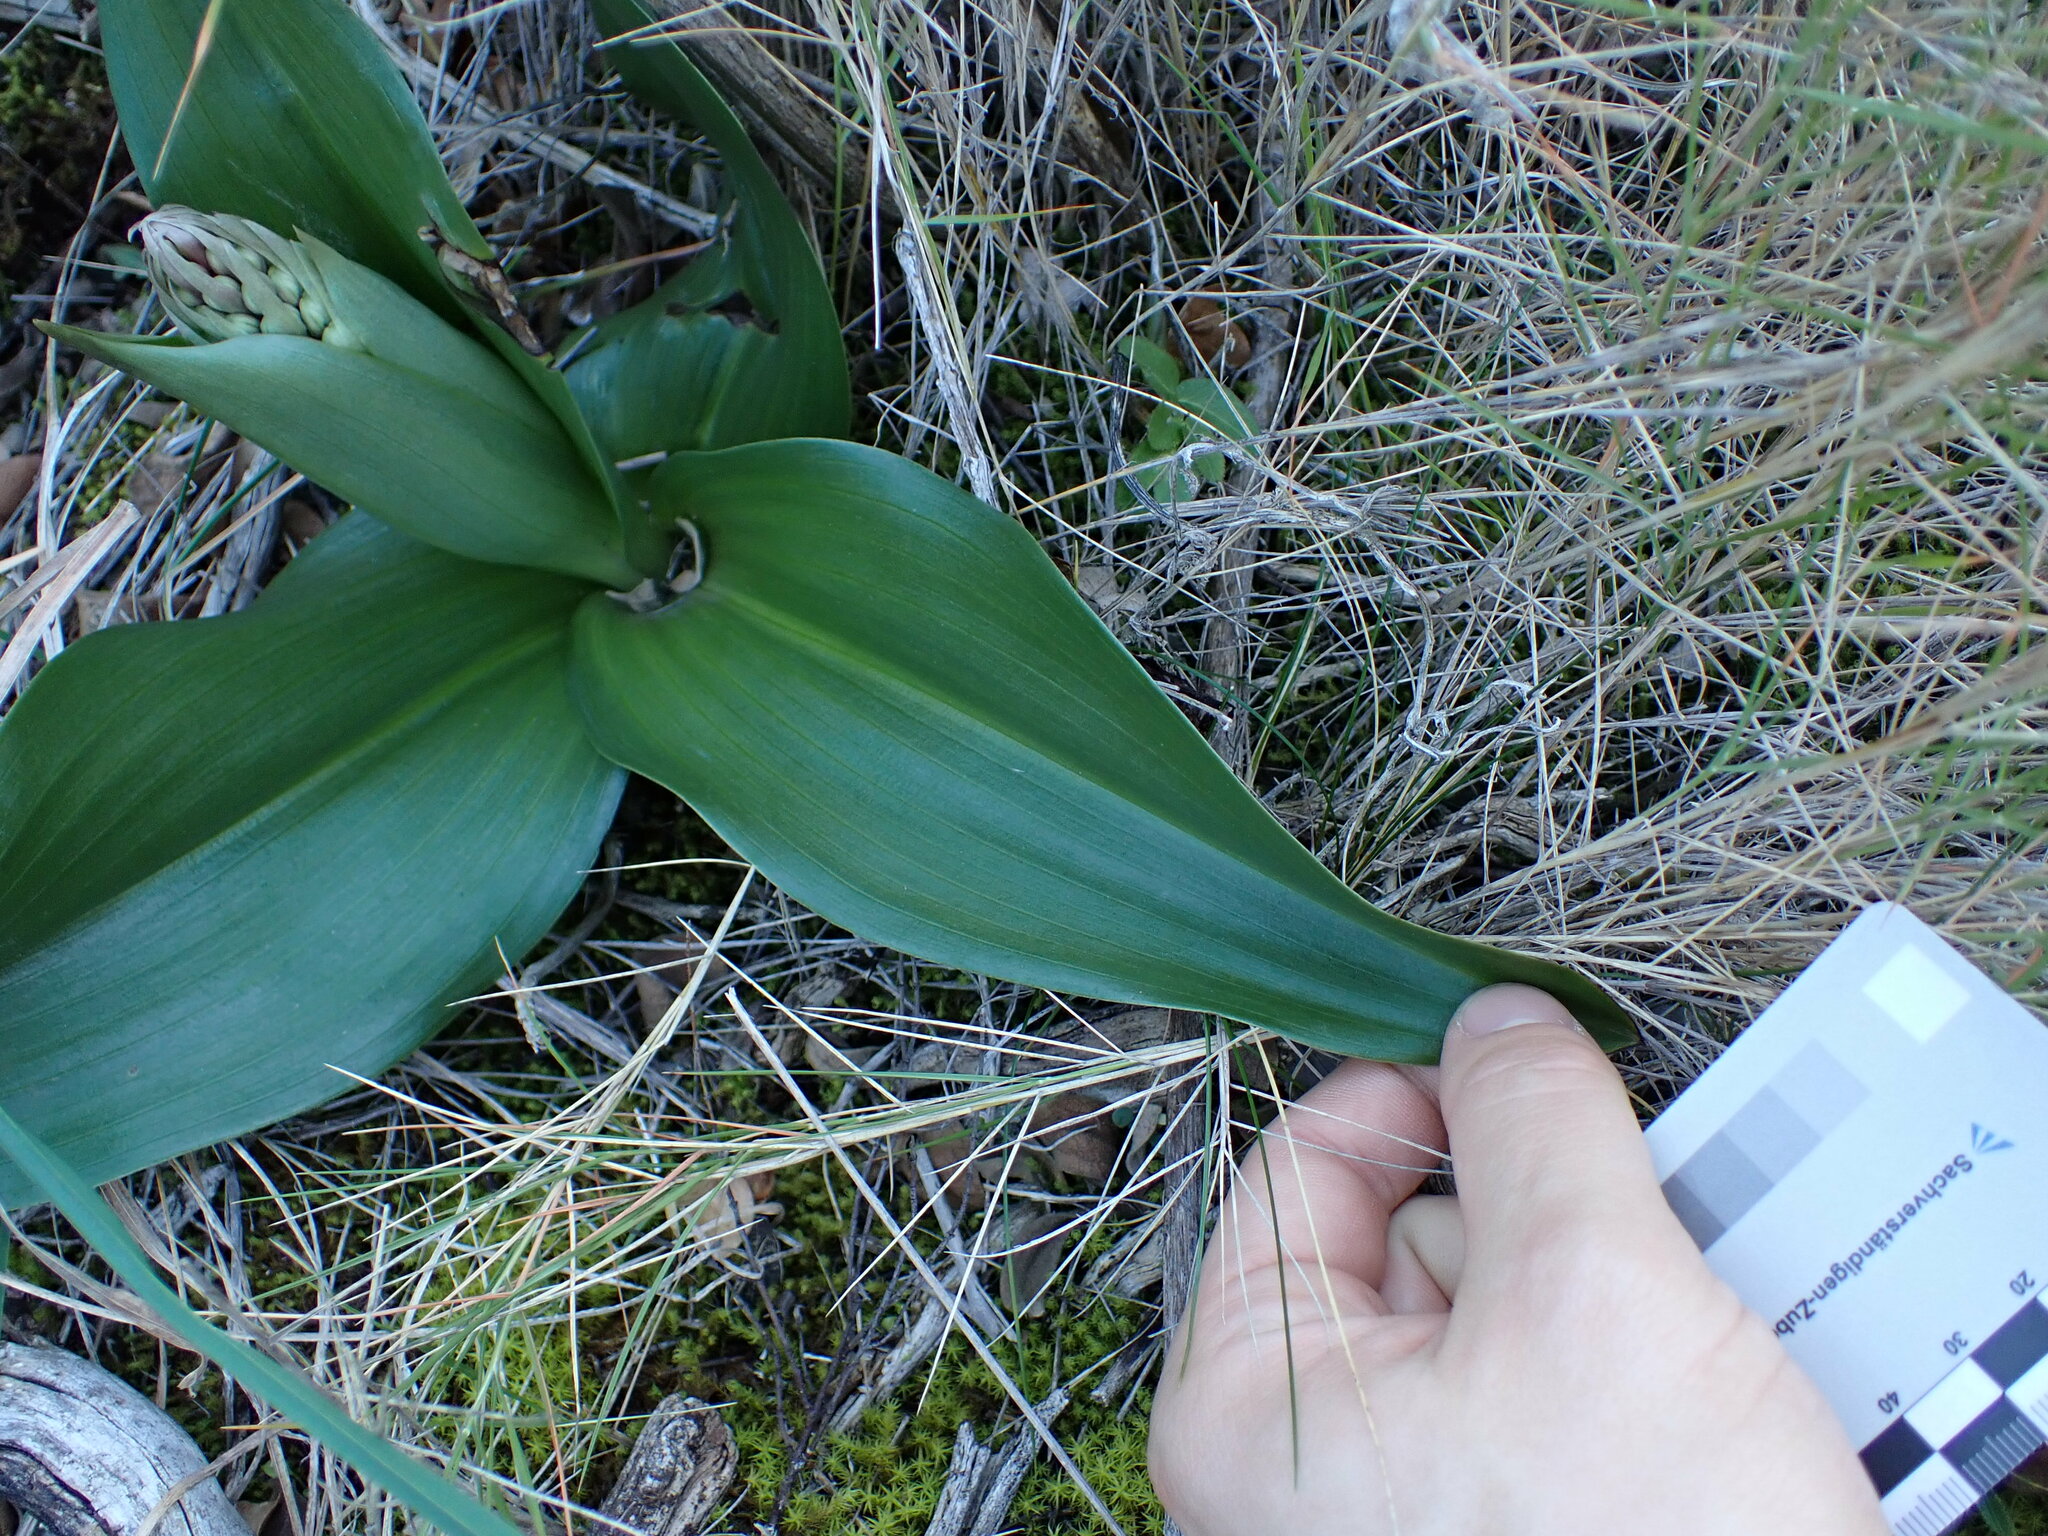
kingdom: Plantae
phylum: Tracheophyta
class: Liliopsida
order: Asparagales
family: Orchidaceae
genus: Himantoglossum
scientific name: Himantoglossum robertianum
